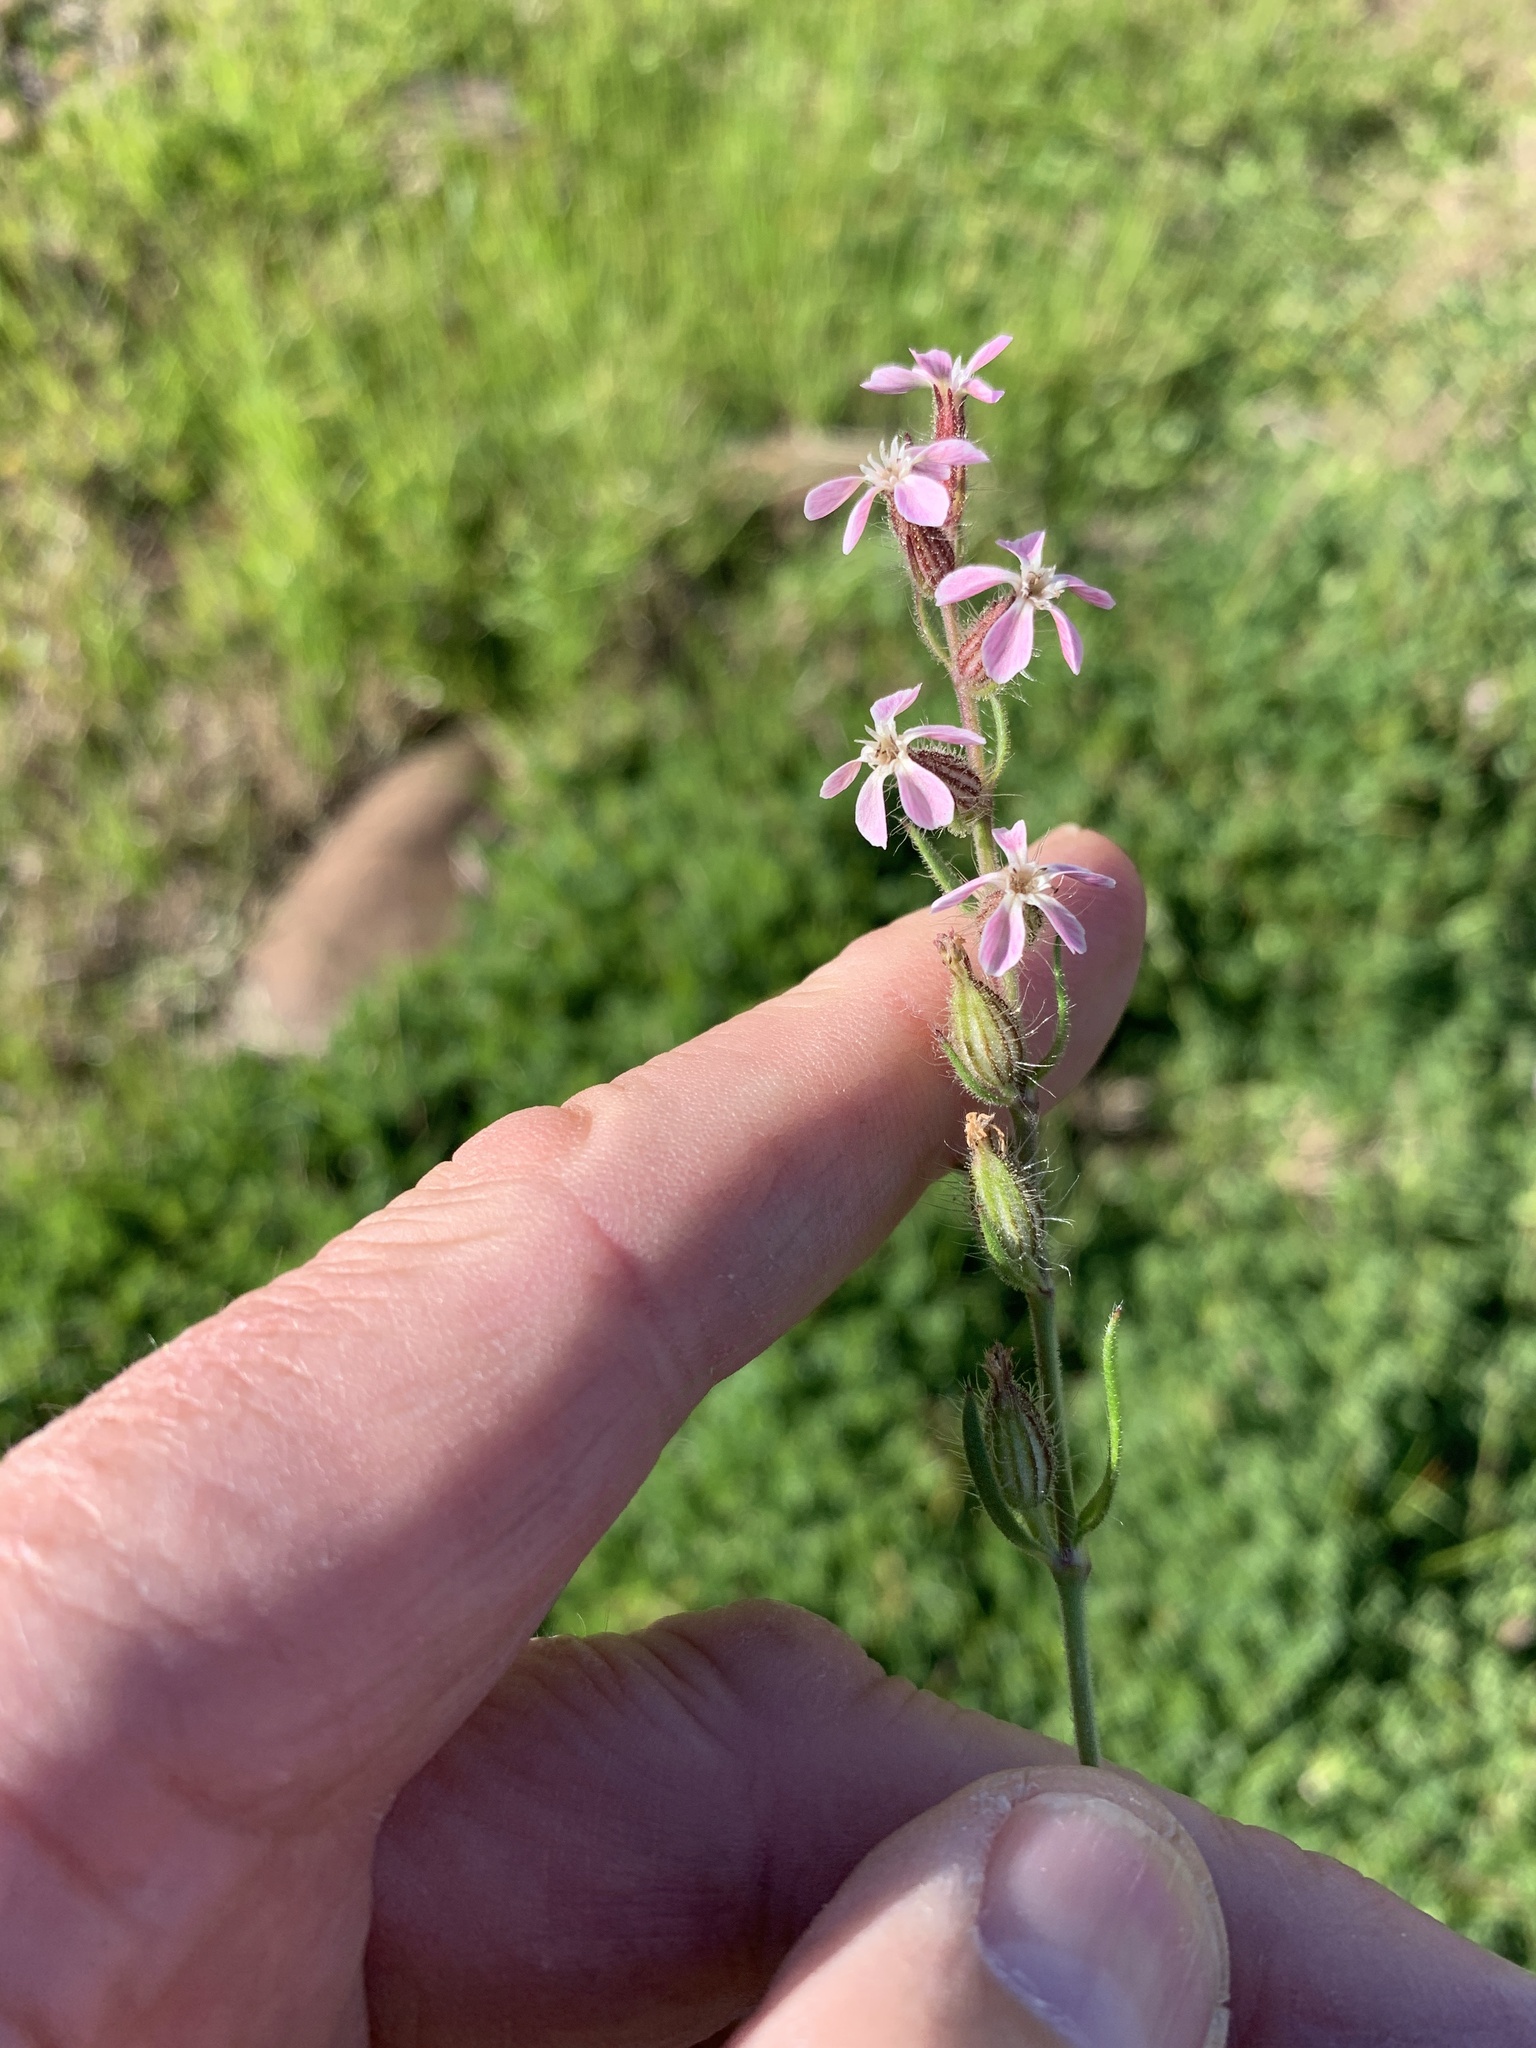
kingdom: Plantae
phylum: Tracheophyta
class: Magnoliopsida
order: Caryophyllales
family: Caryophyllaceae
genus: Silene
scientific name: Silene gallica
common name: Small-flowered catchfly
